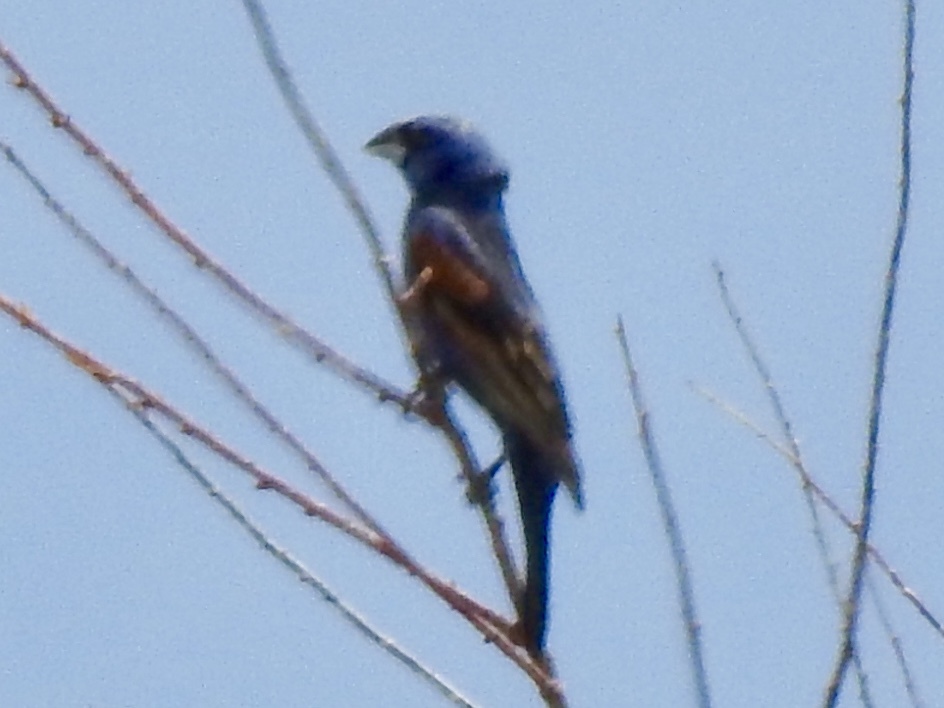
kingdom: Animalia
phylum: Chordata
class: Aves
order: Passeriformes
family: Cardinalidae
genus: Passerina
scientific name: Passerina caerulea
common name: Blue grosbeak
